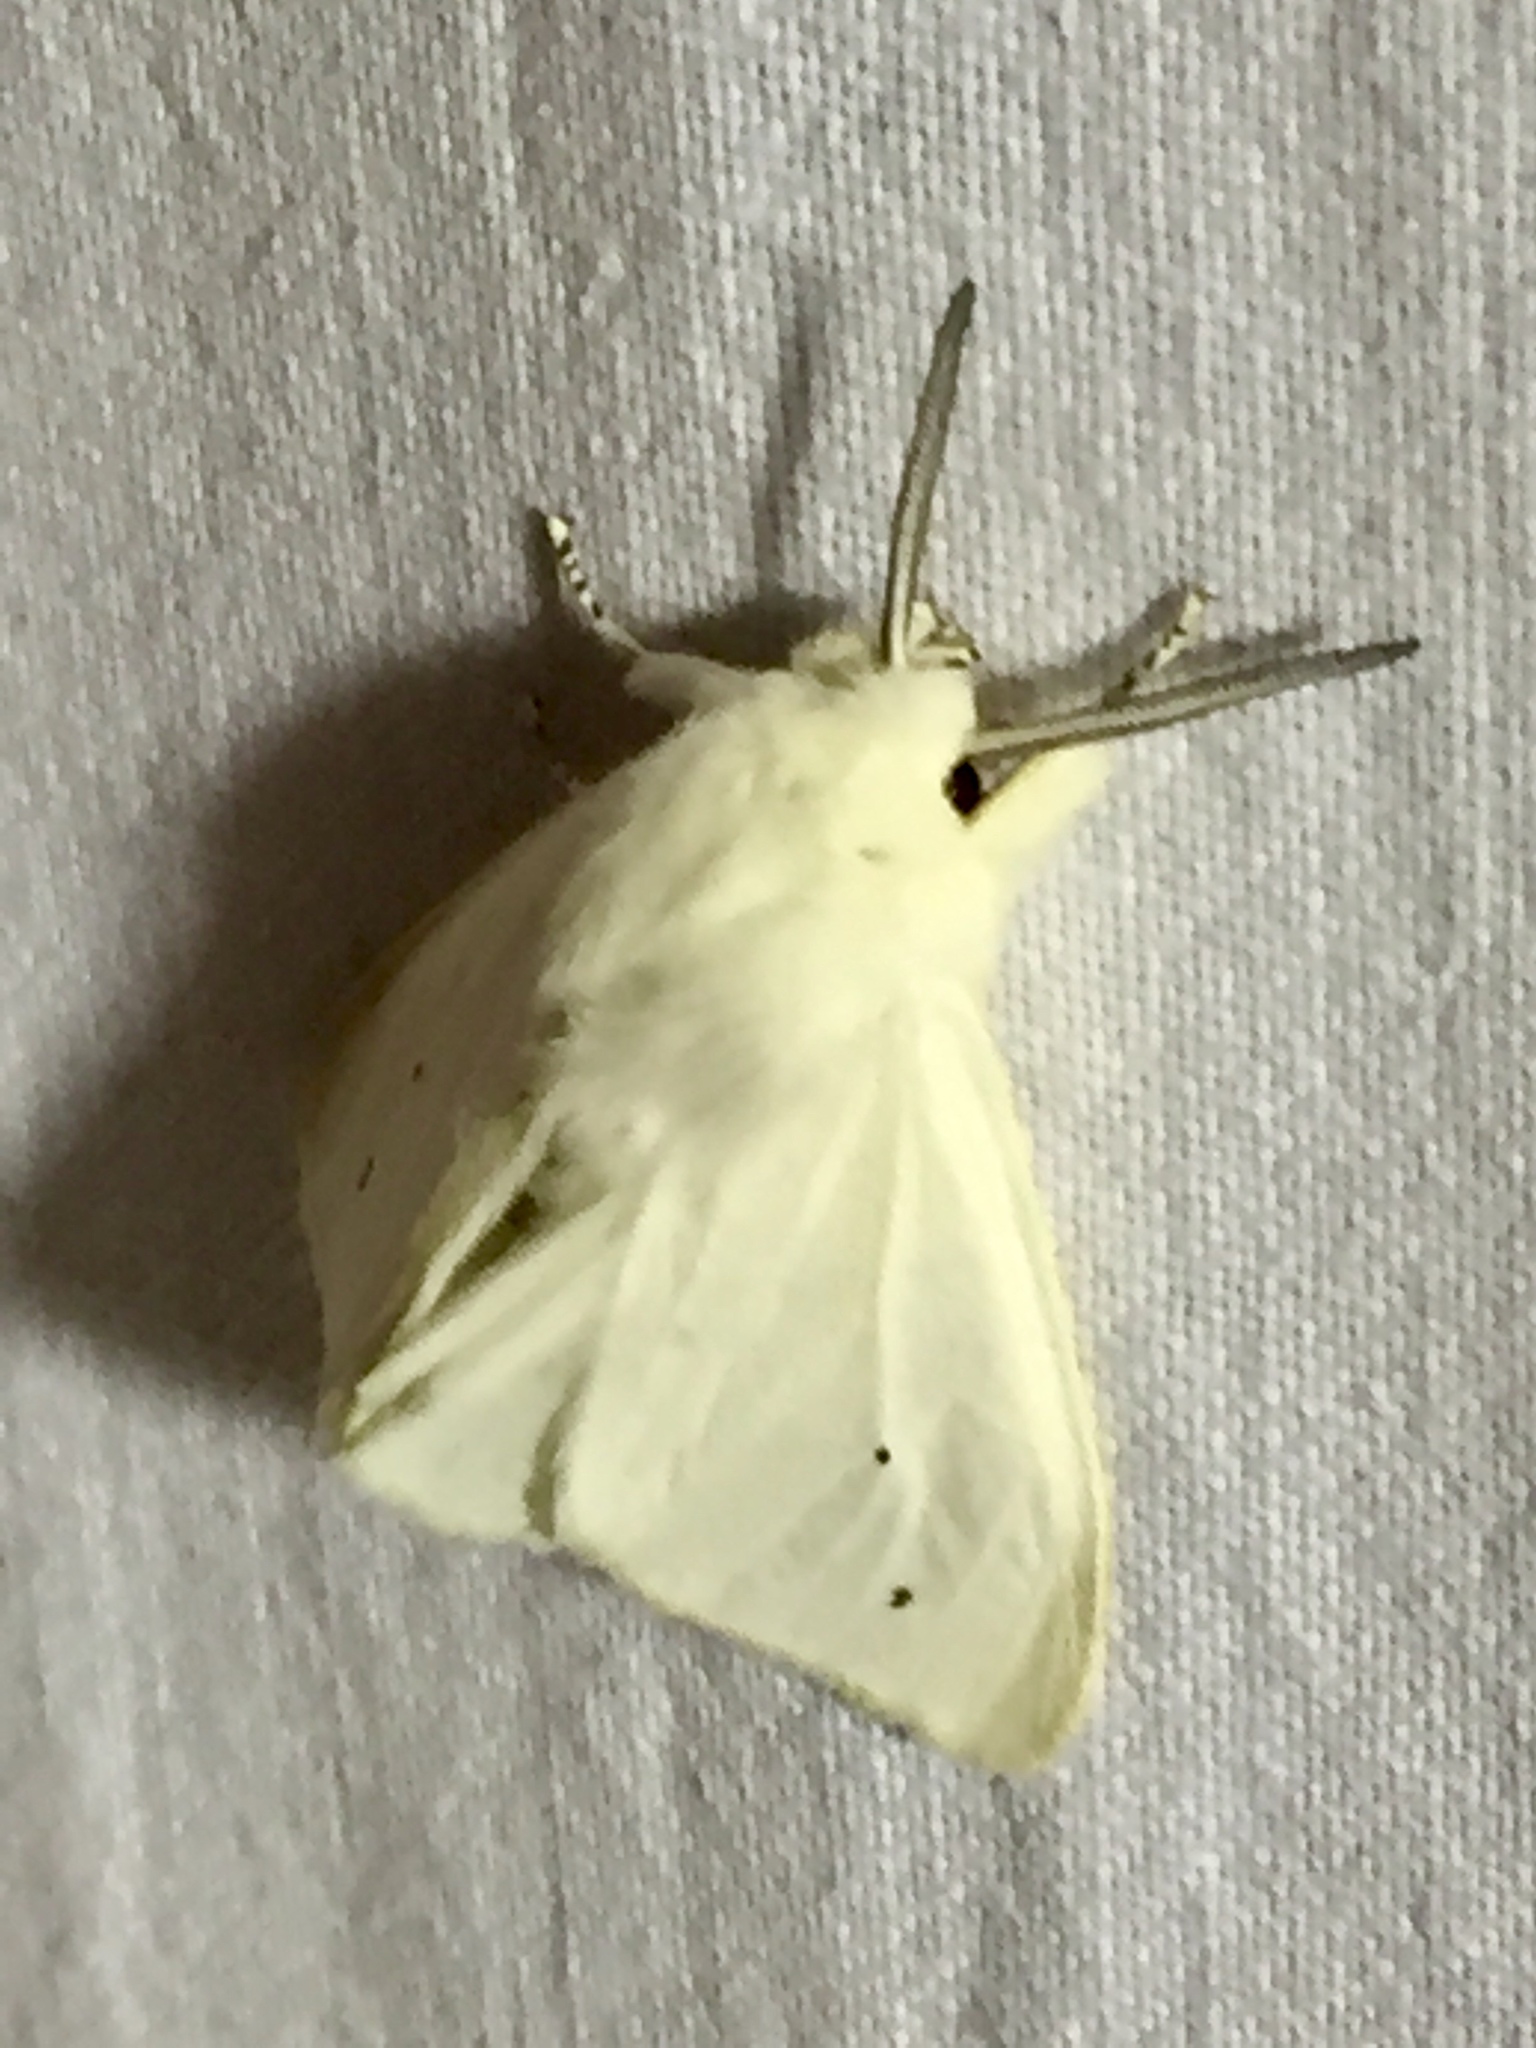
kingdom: Animalia
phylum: Arthropoda
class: Insecta
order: Lepidoptera
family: Erebidae
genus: Spilosoma
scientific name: Spilosoma virginica
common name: Virginia tiger moth
